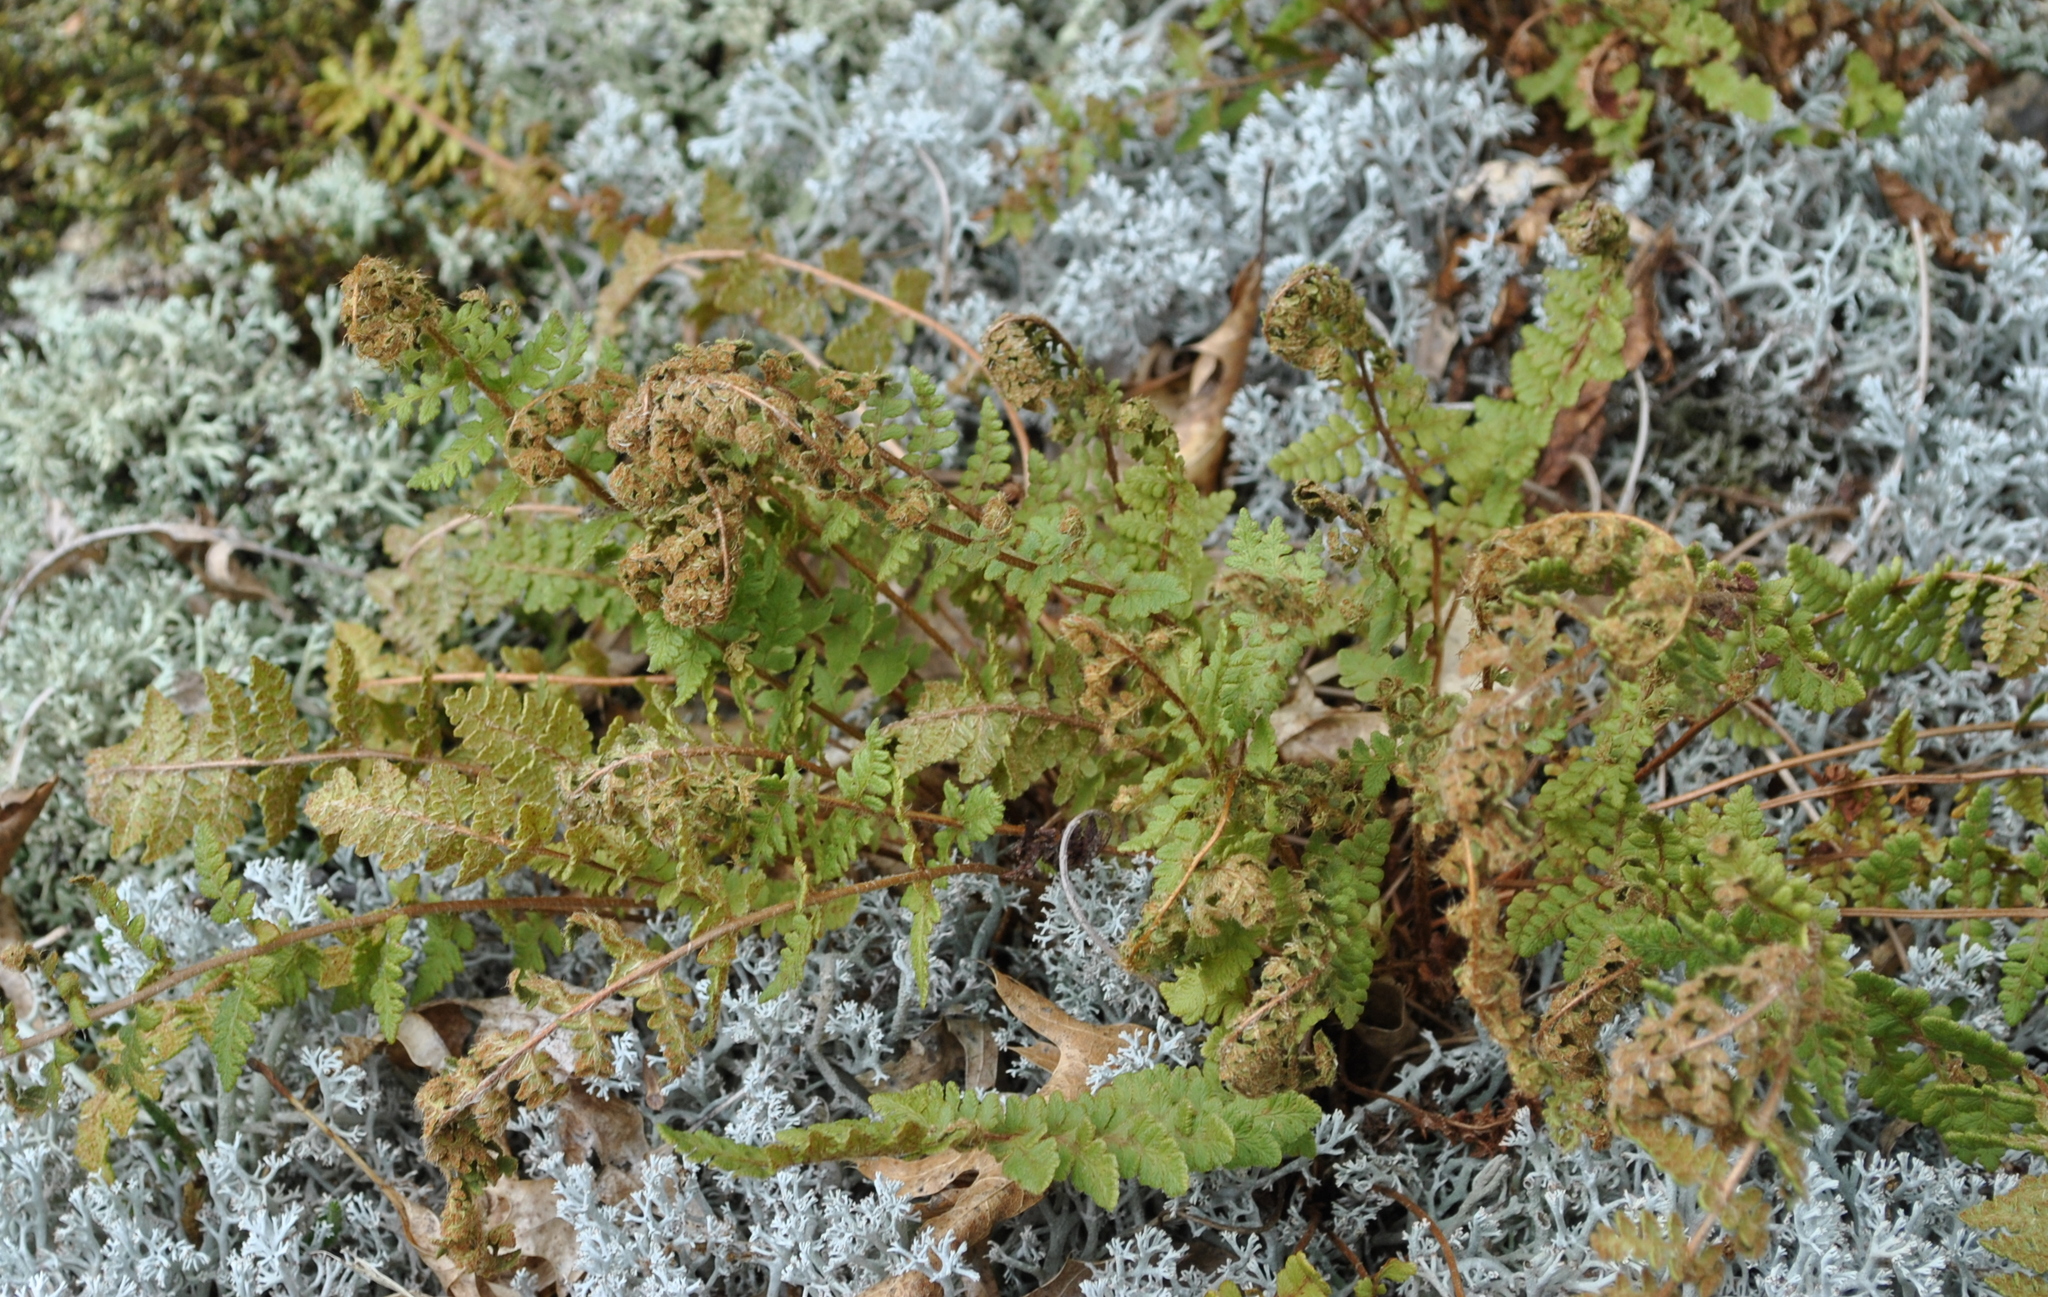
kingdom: Plantae
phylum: Tracheophyta
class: Polypodiopsida
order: Polypodiales
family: Woodsiaceae
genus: Woodsia
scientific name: Woodsia ilvensis
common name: Fragrant woodsia
